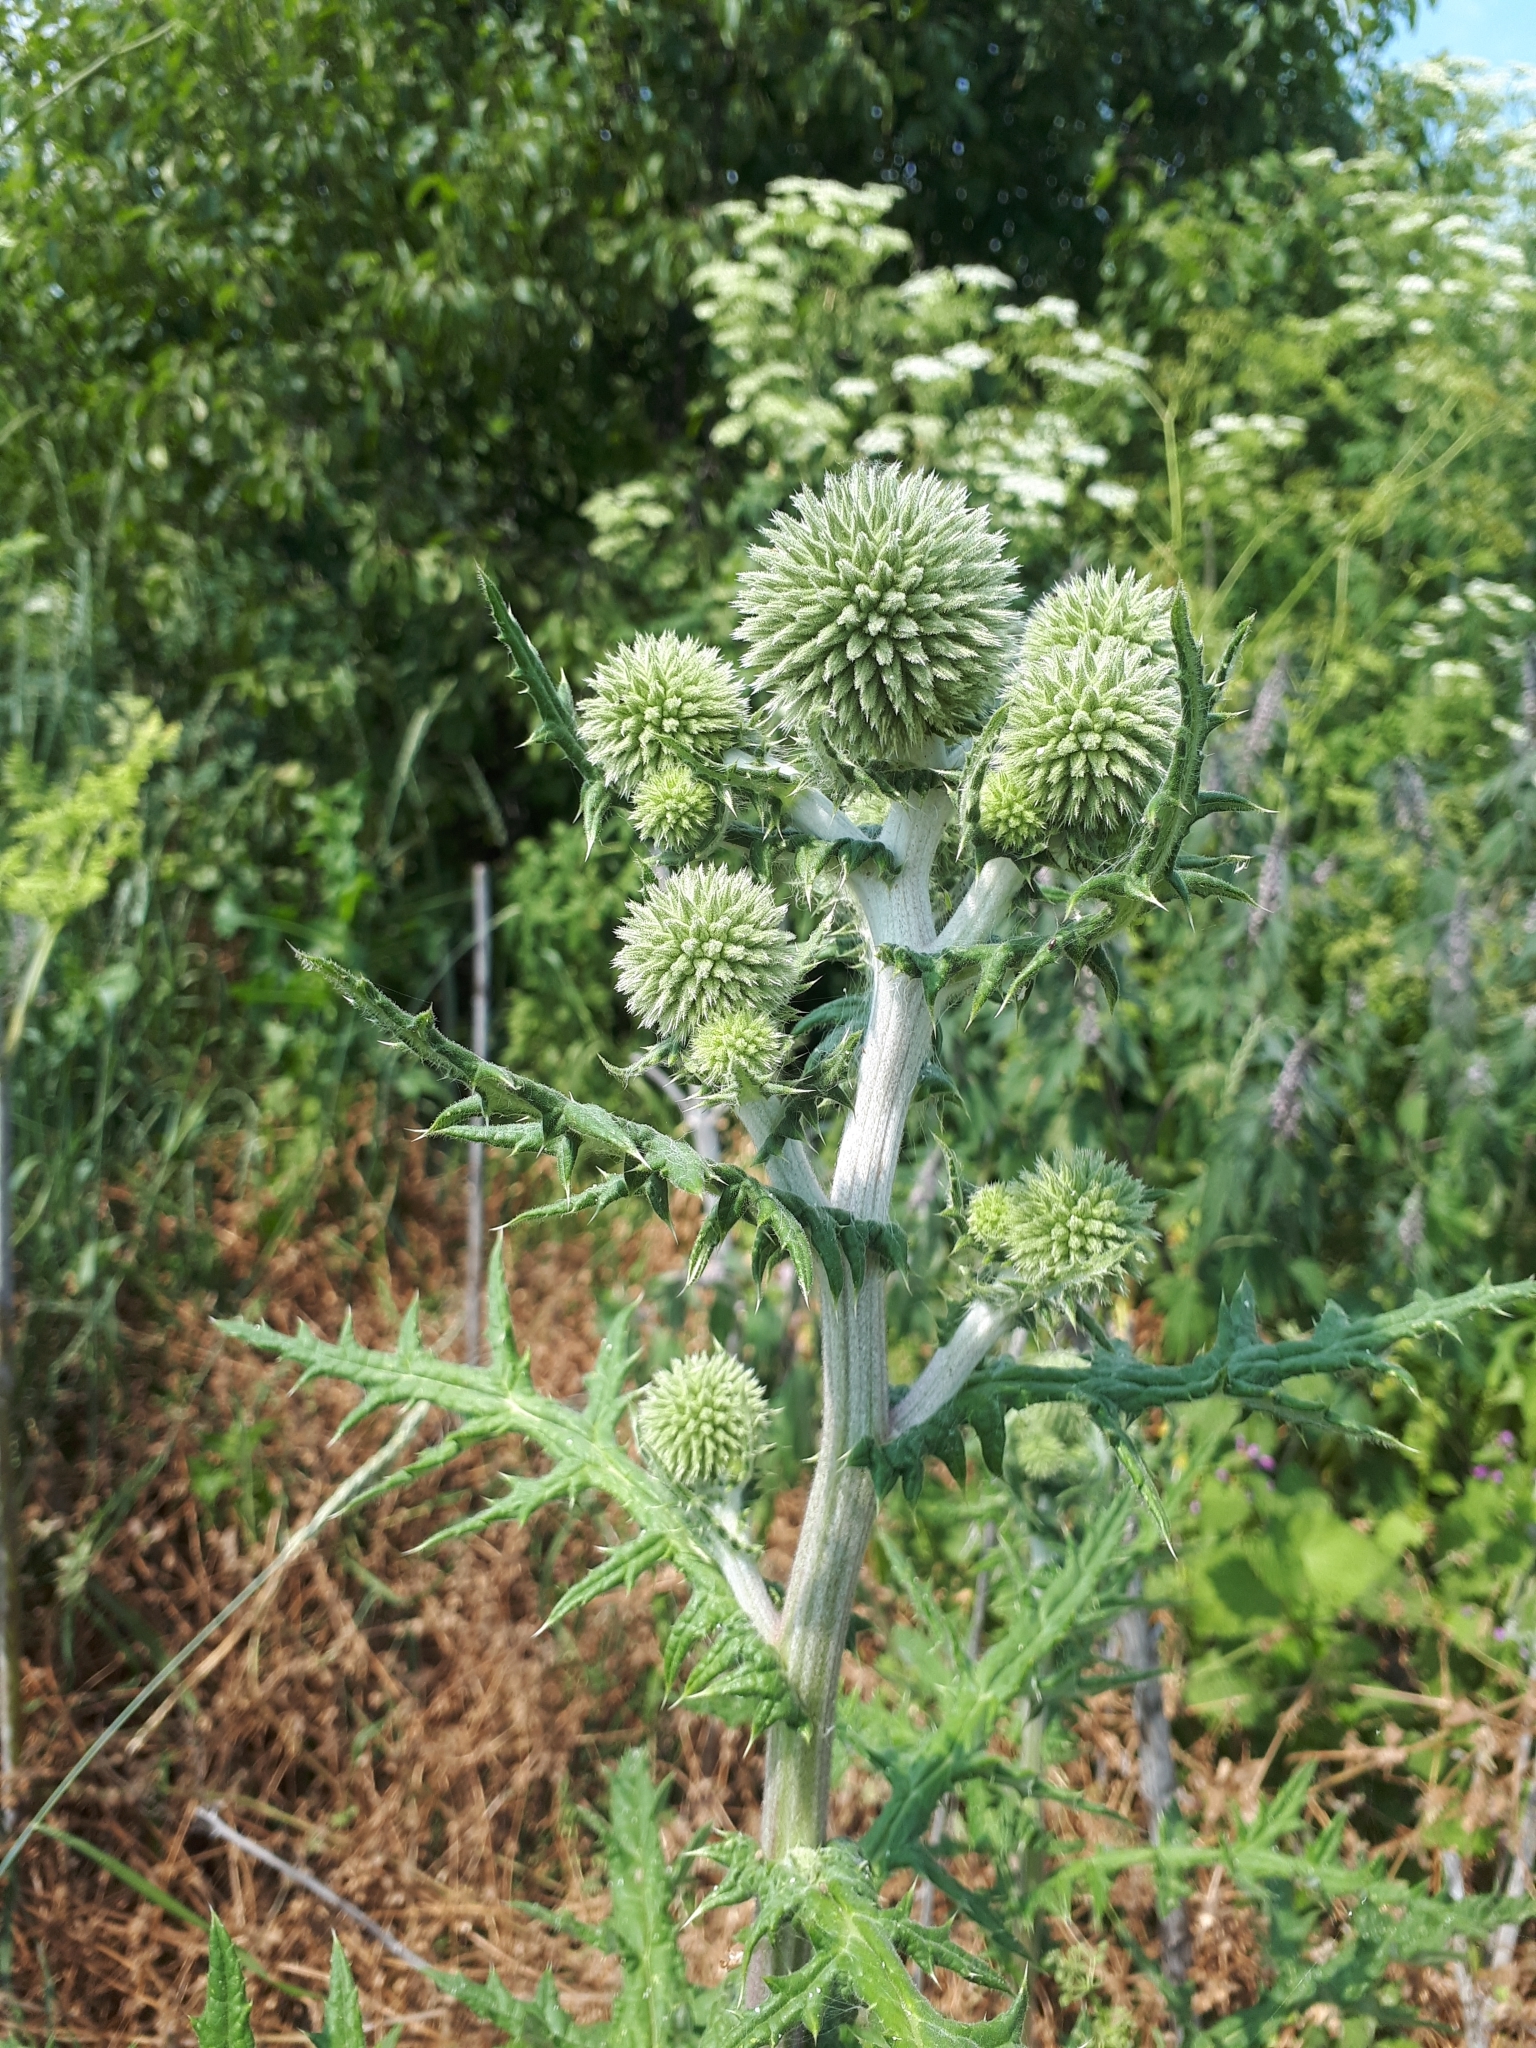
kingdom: Plantae
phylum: Tracheophyta
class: Magnoliopsida
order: Asterales
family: Asteraceae
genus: Echinops
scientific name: Echinops sphaerocephalus
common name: Glandular globe-thistle
